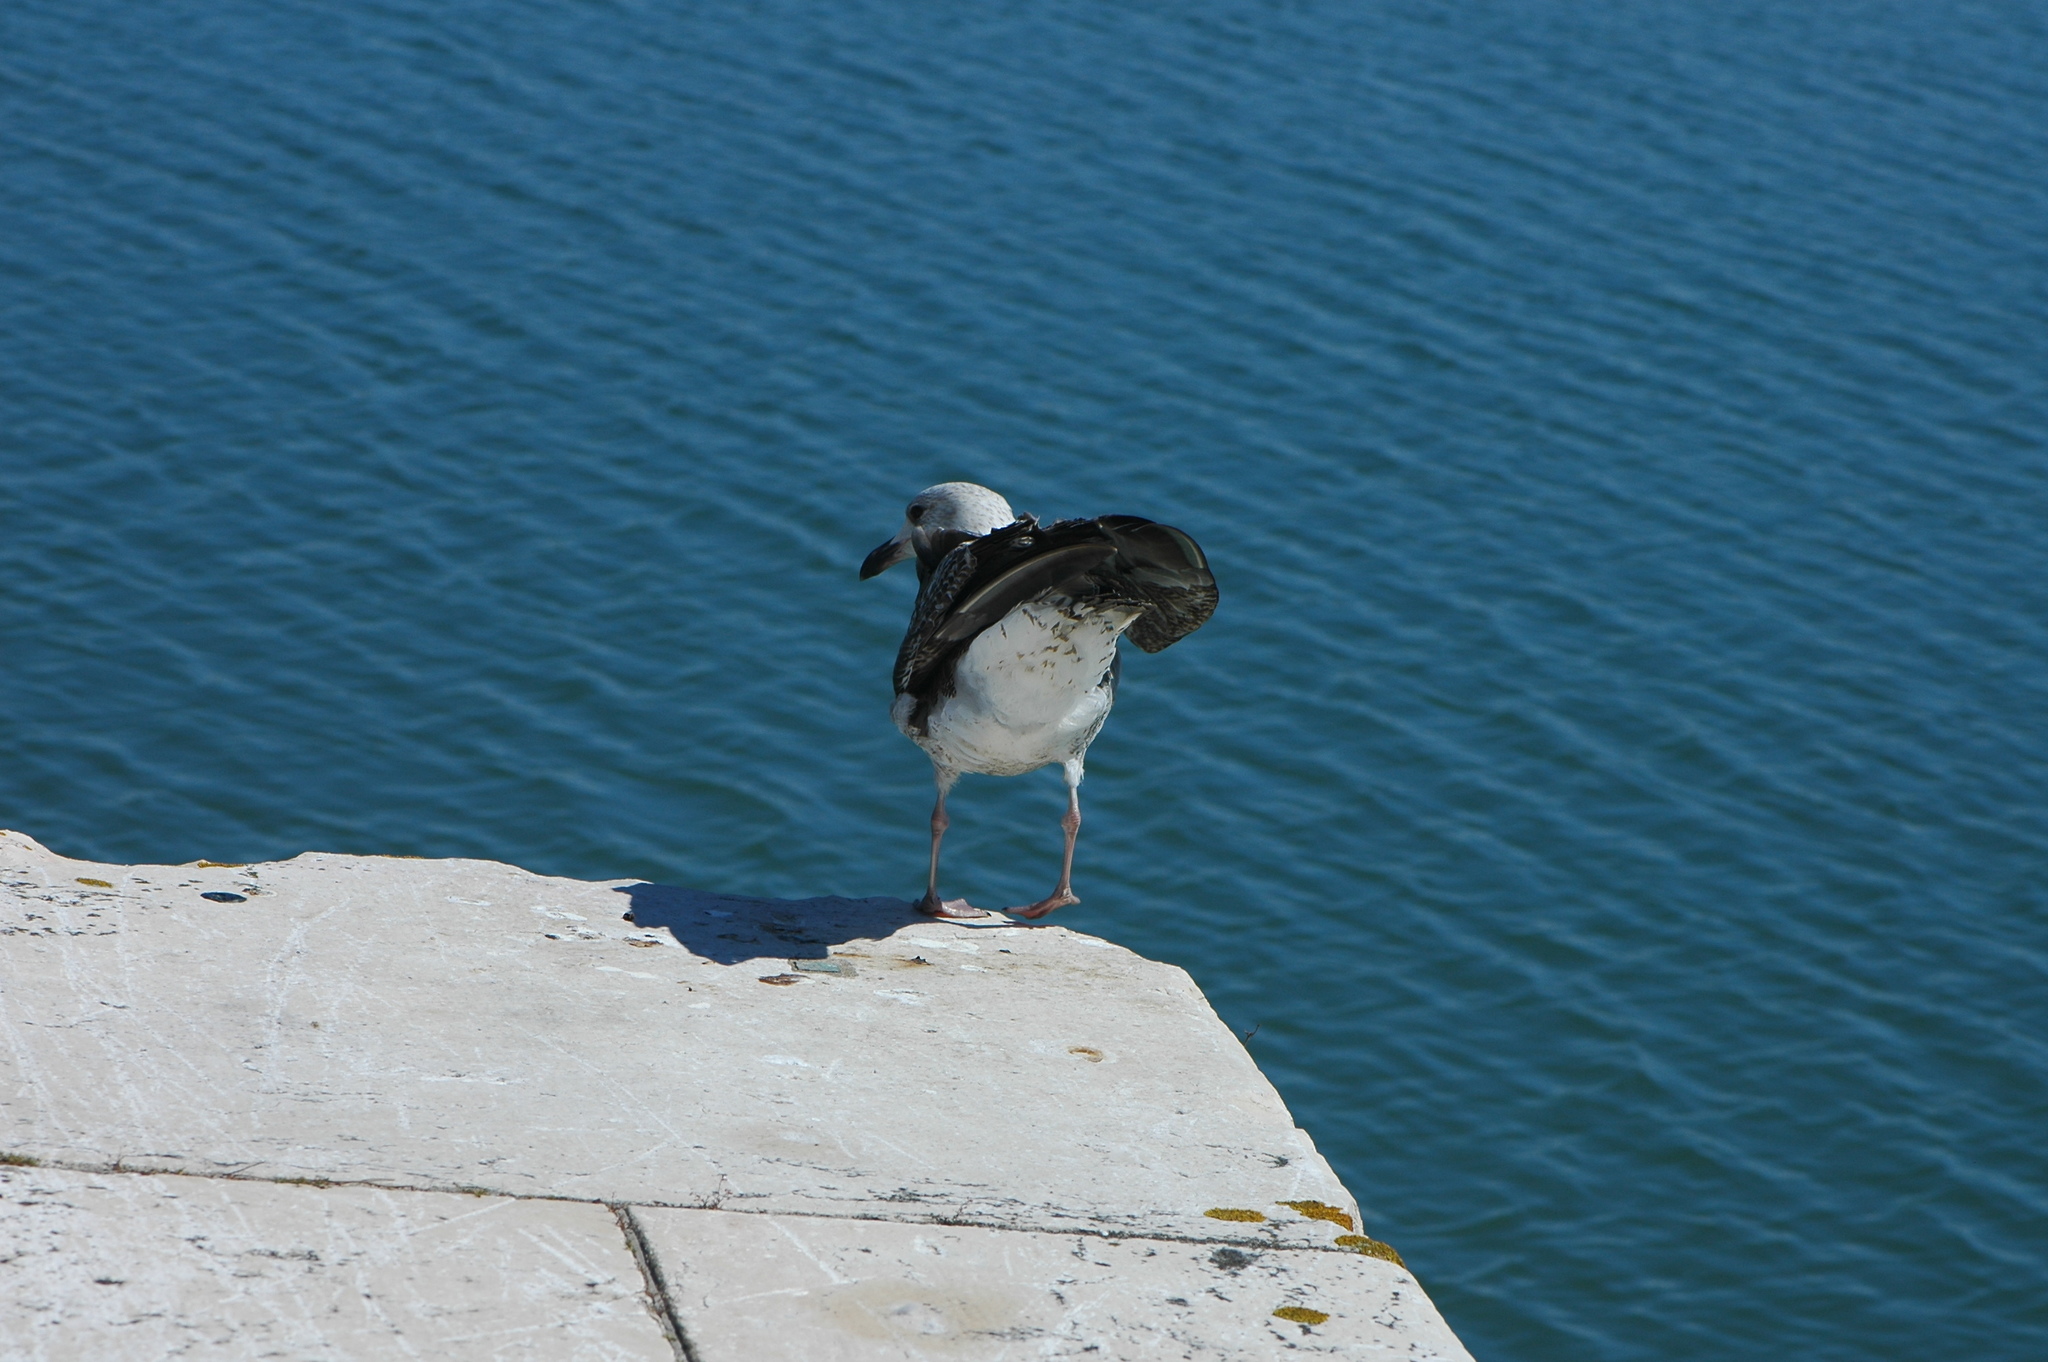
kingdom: Animalia
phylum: Chordata
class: Aves
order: Charadriiformes
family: Laridae
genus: Larus
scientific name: Larus fuscus
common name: Lesser black-backed gull
